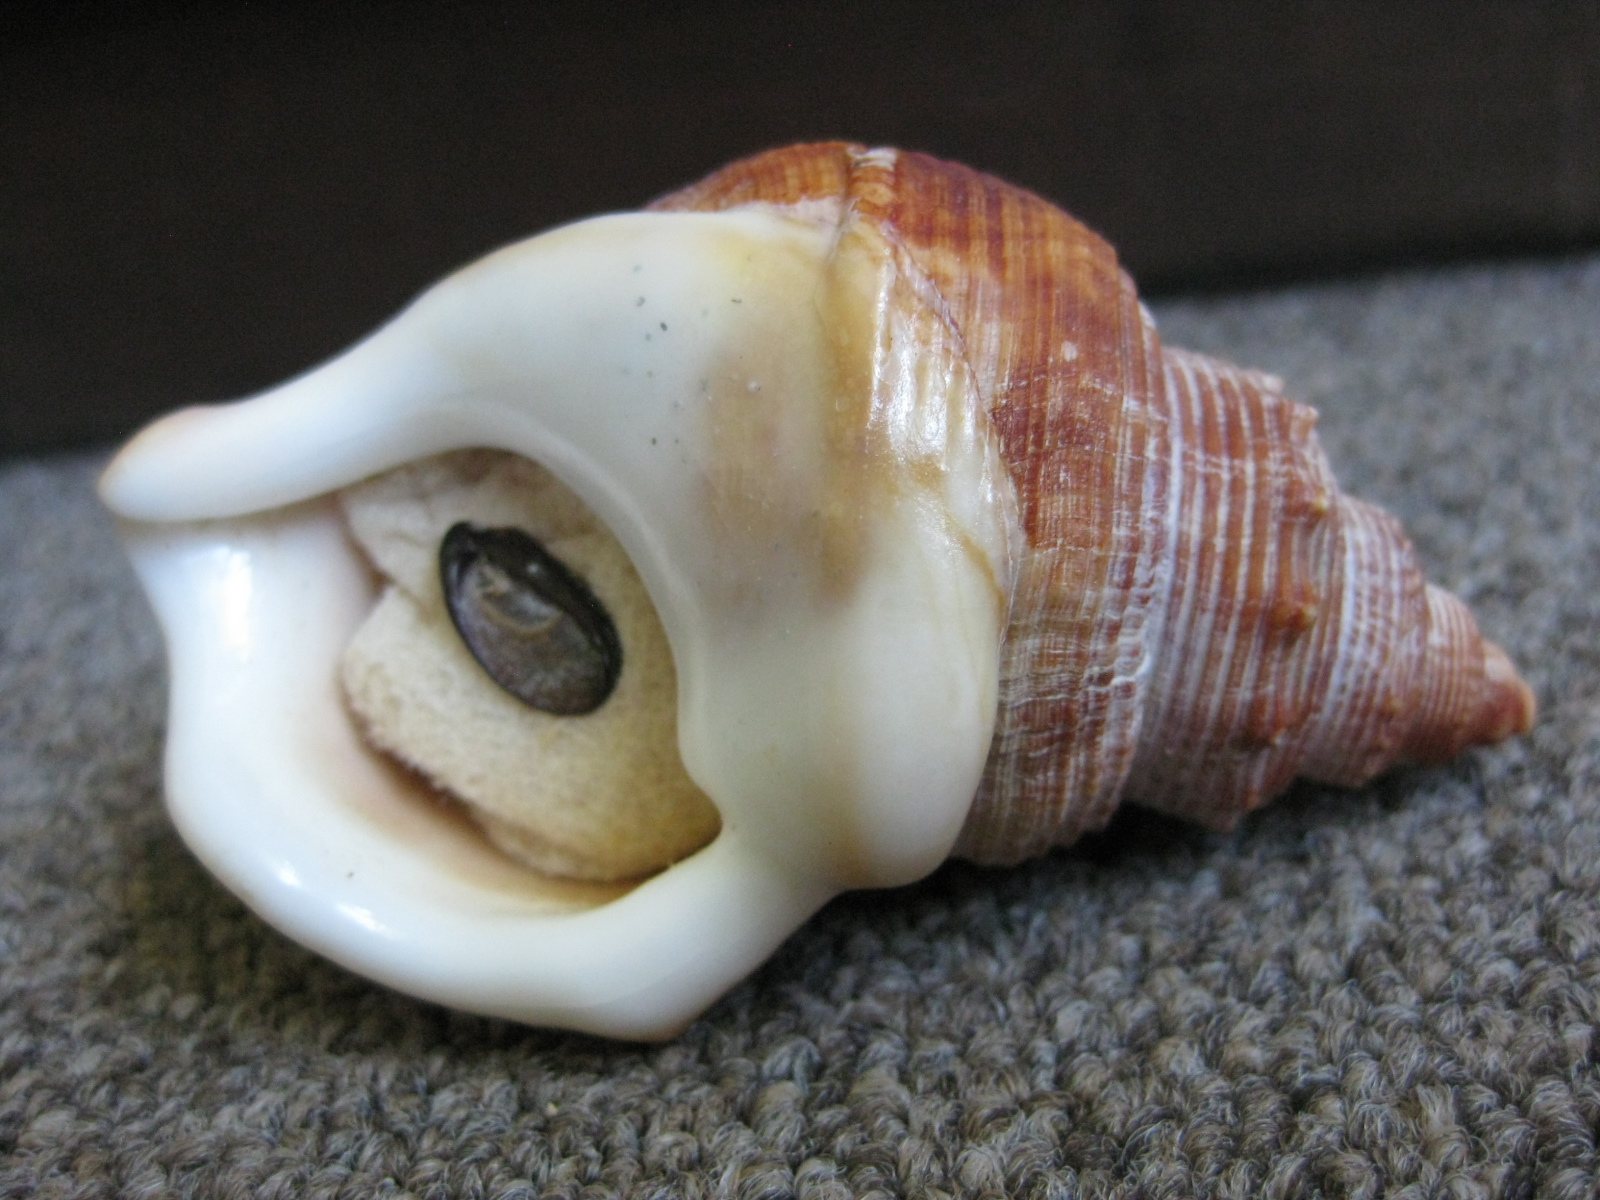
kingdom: Animalia
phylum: Mollusca
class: Gastropoda
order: Littorinimorpha
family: Struthiolariidae
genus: Struthiolaria
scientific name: Struthiolaria papulosa
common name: Large ostrich foot
